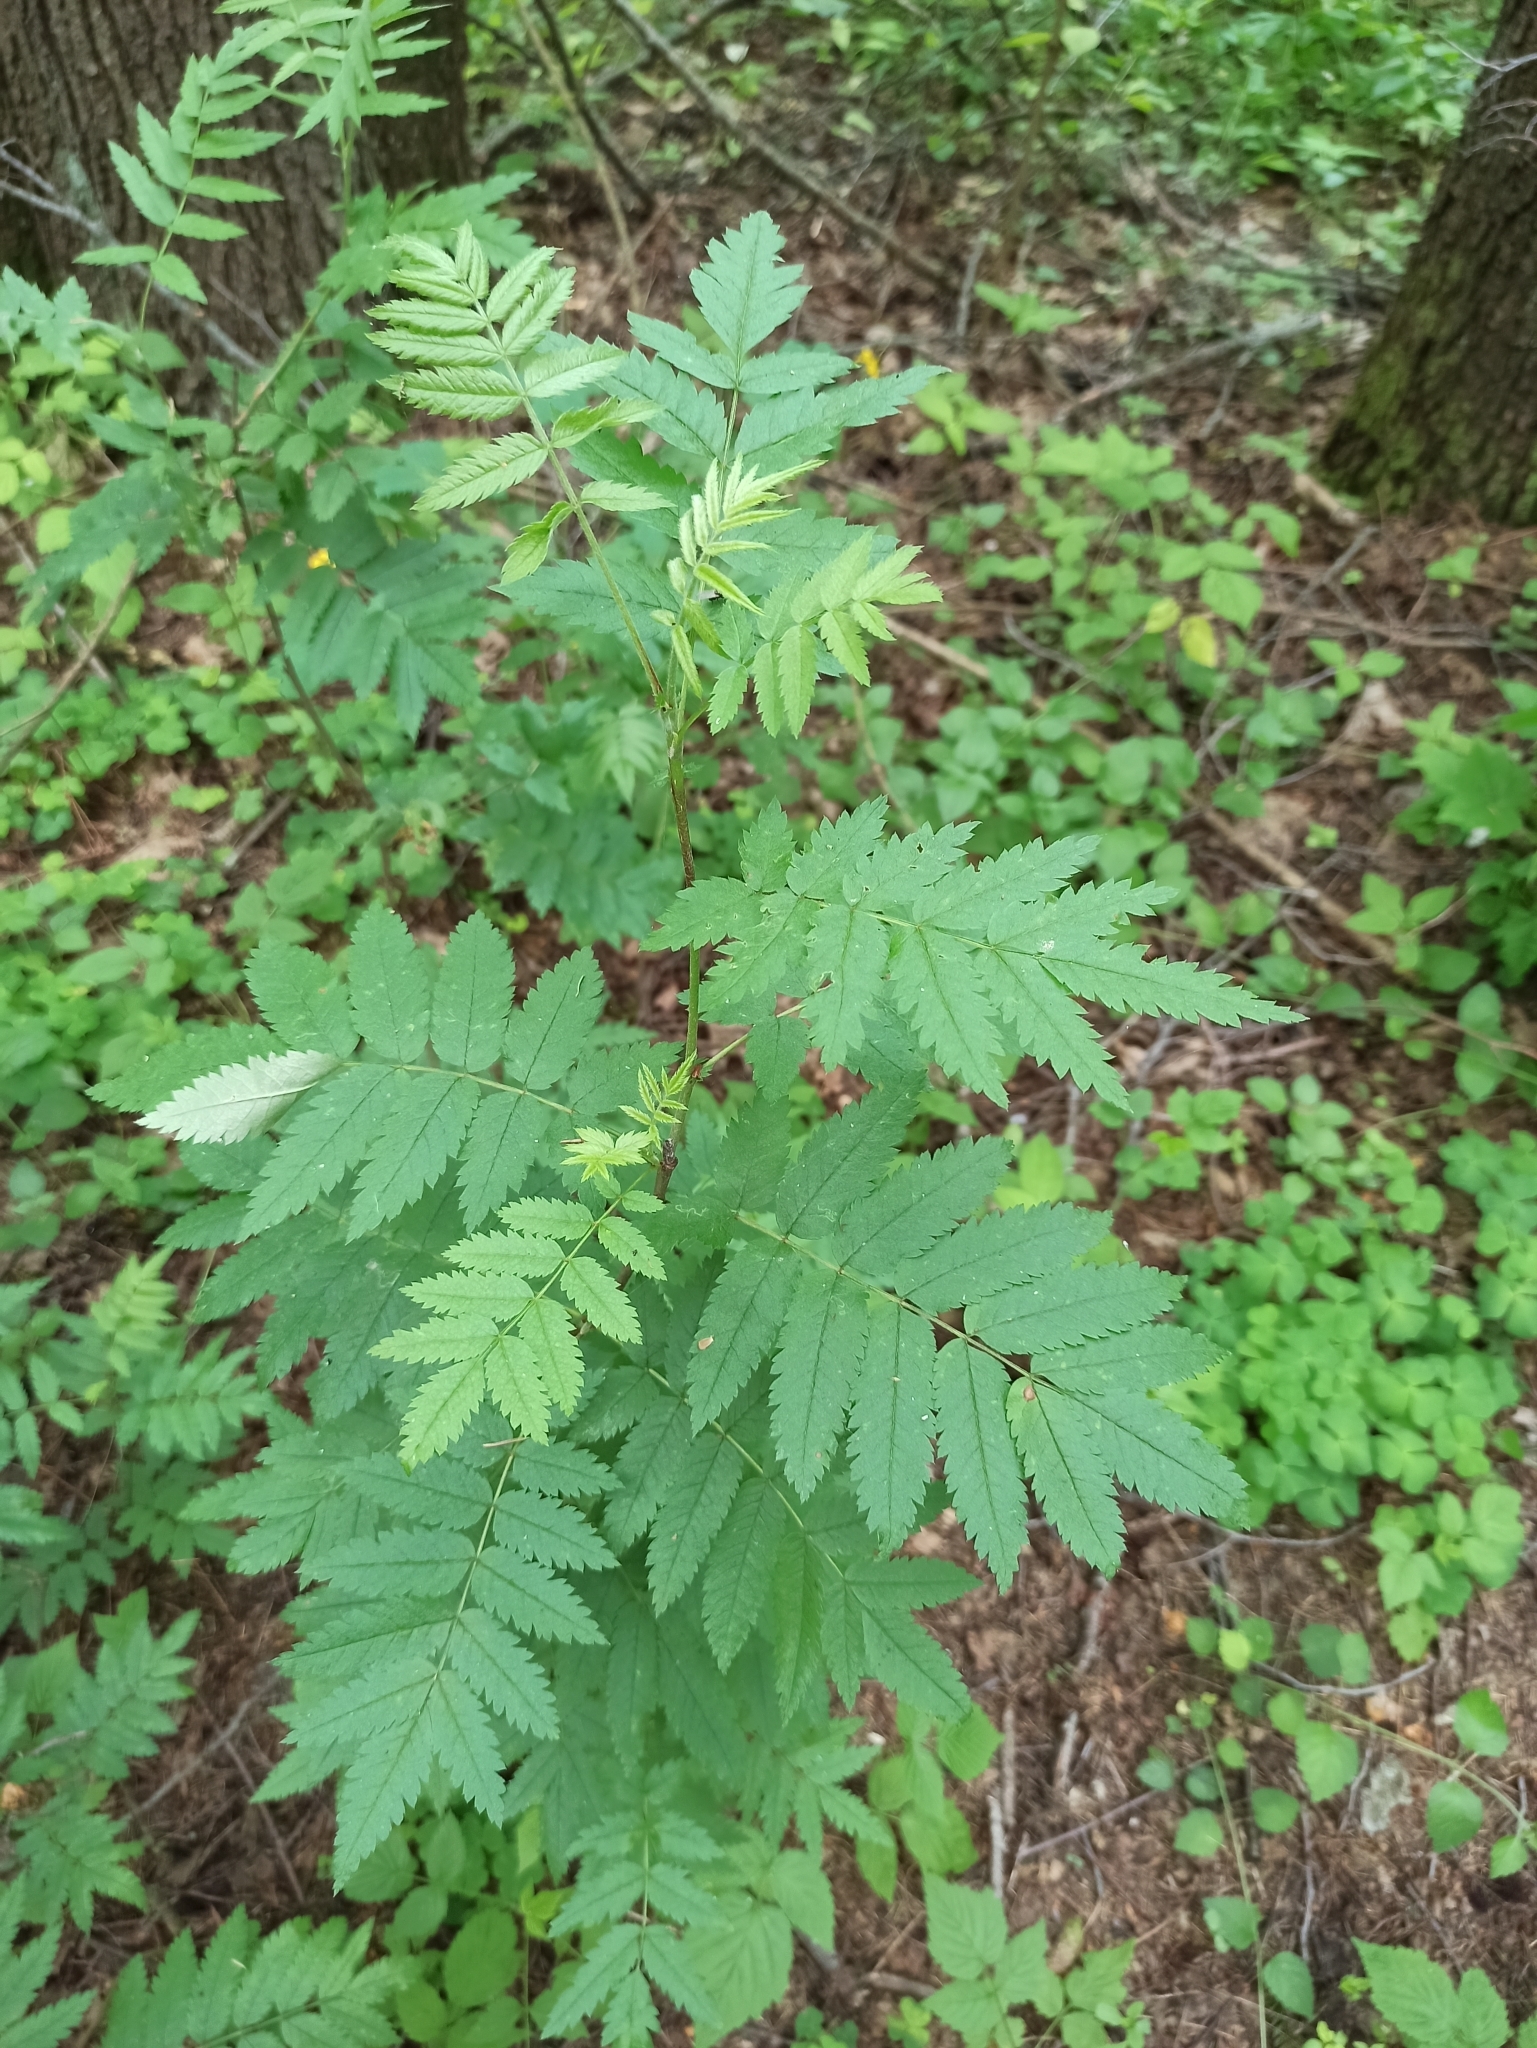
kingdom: Plantae
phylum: Tracheophyta
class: Magnoliopsida
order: Rosales
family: Rosaceae
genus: Sorbus
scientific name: Sorbus aucuparia
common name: Rowan
